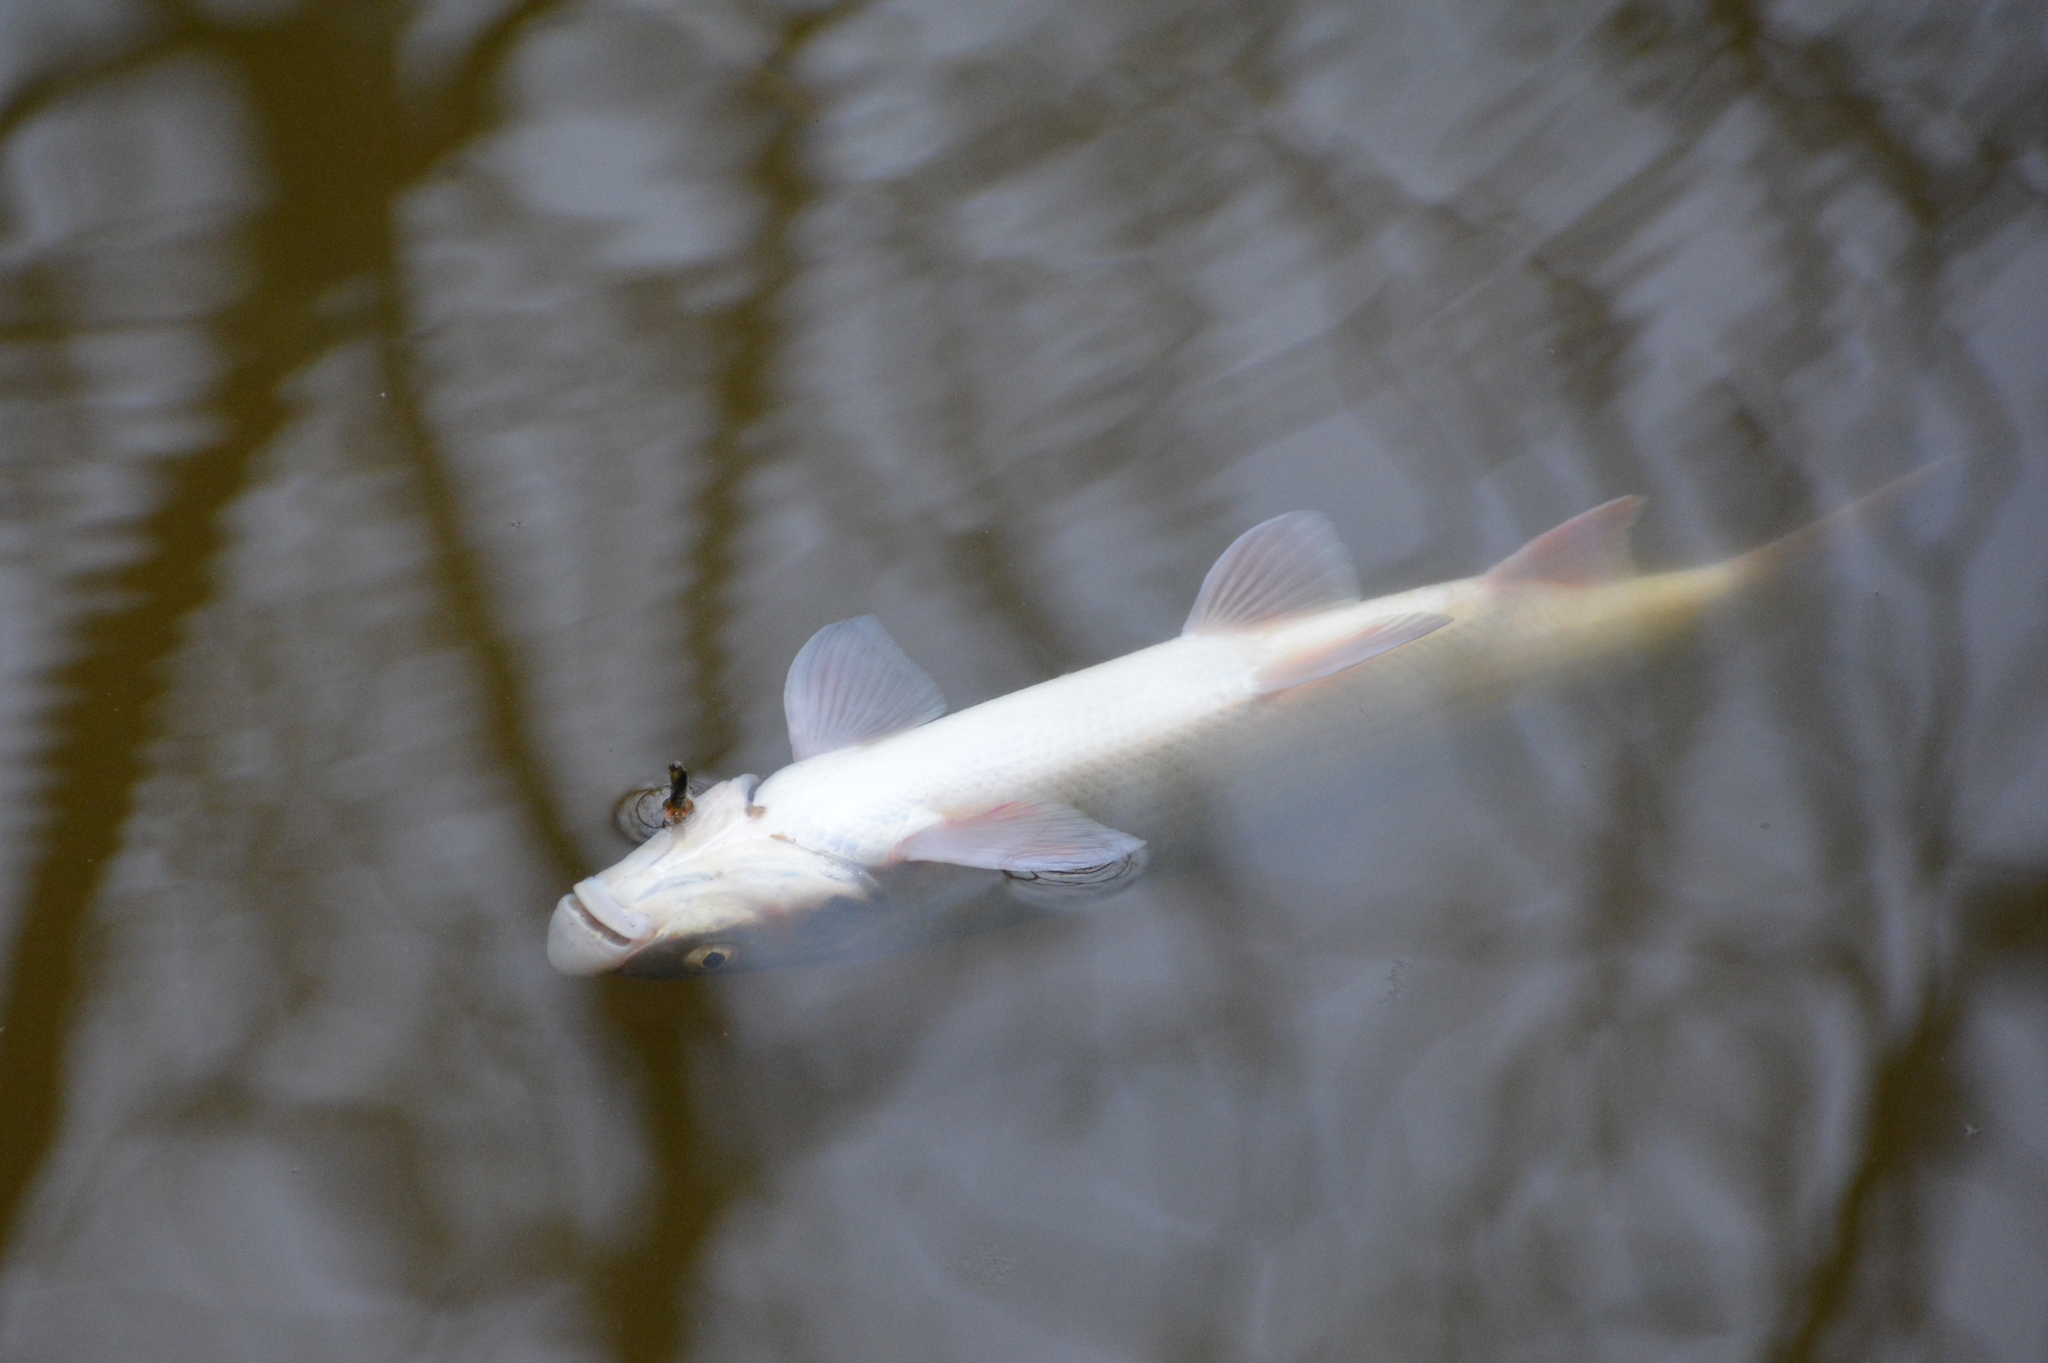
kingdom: Animalia
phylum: Chordata
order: Cypriniformes
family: Cyprinidae
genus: Chondrostoma
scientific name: Chondrostoma nasus
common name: Nase
